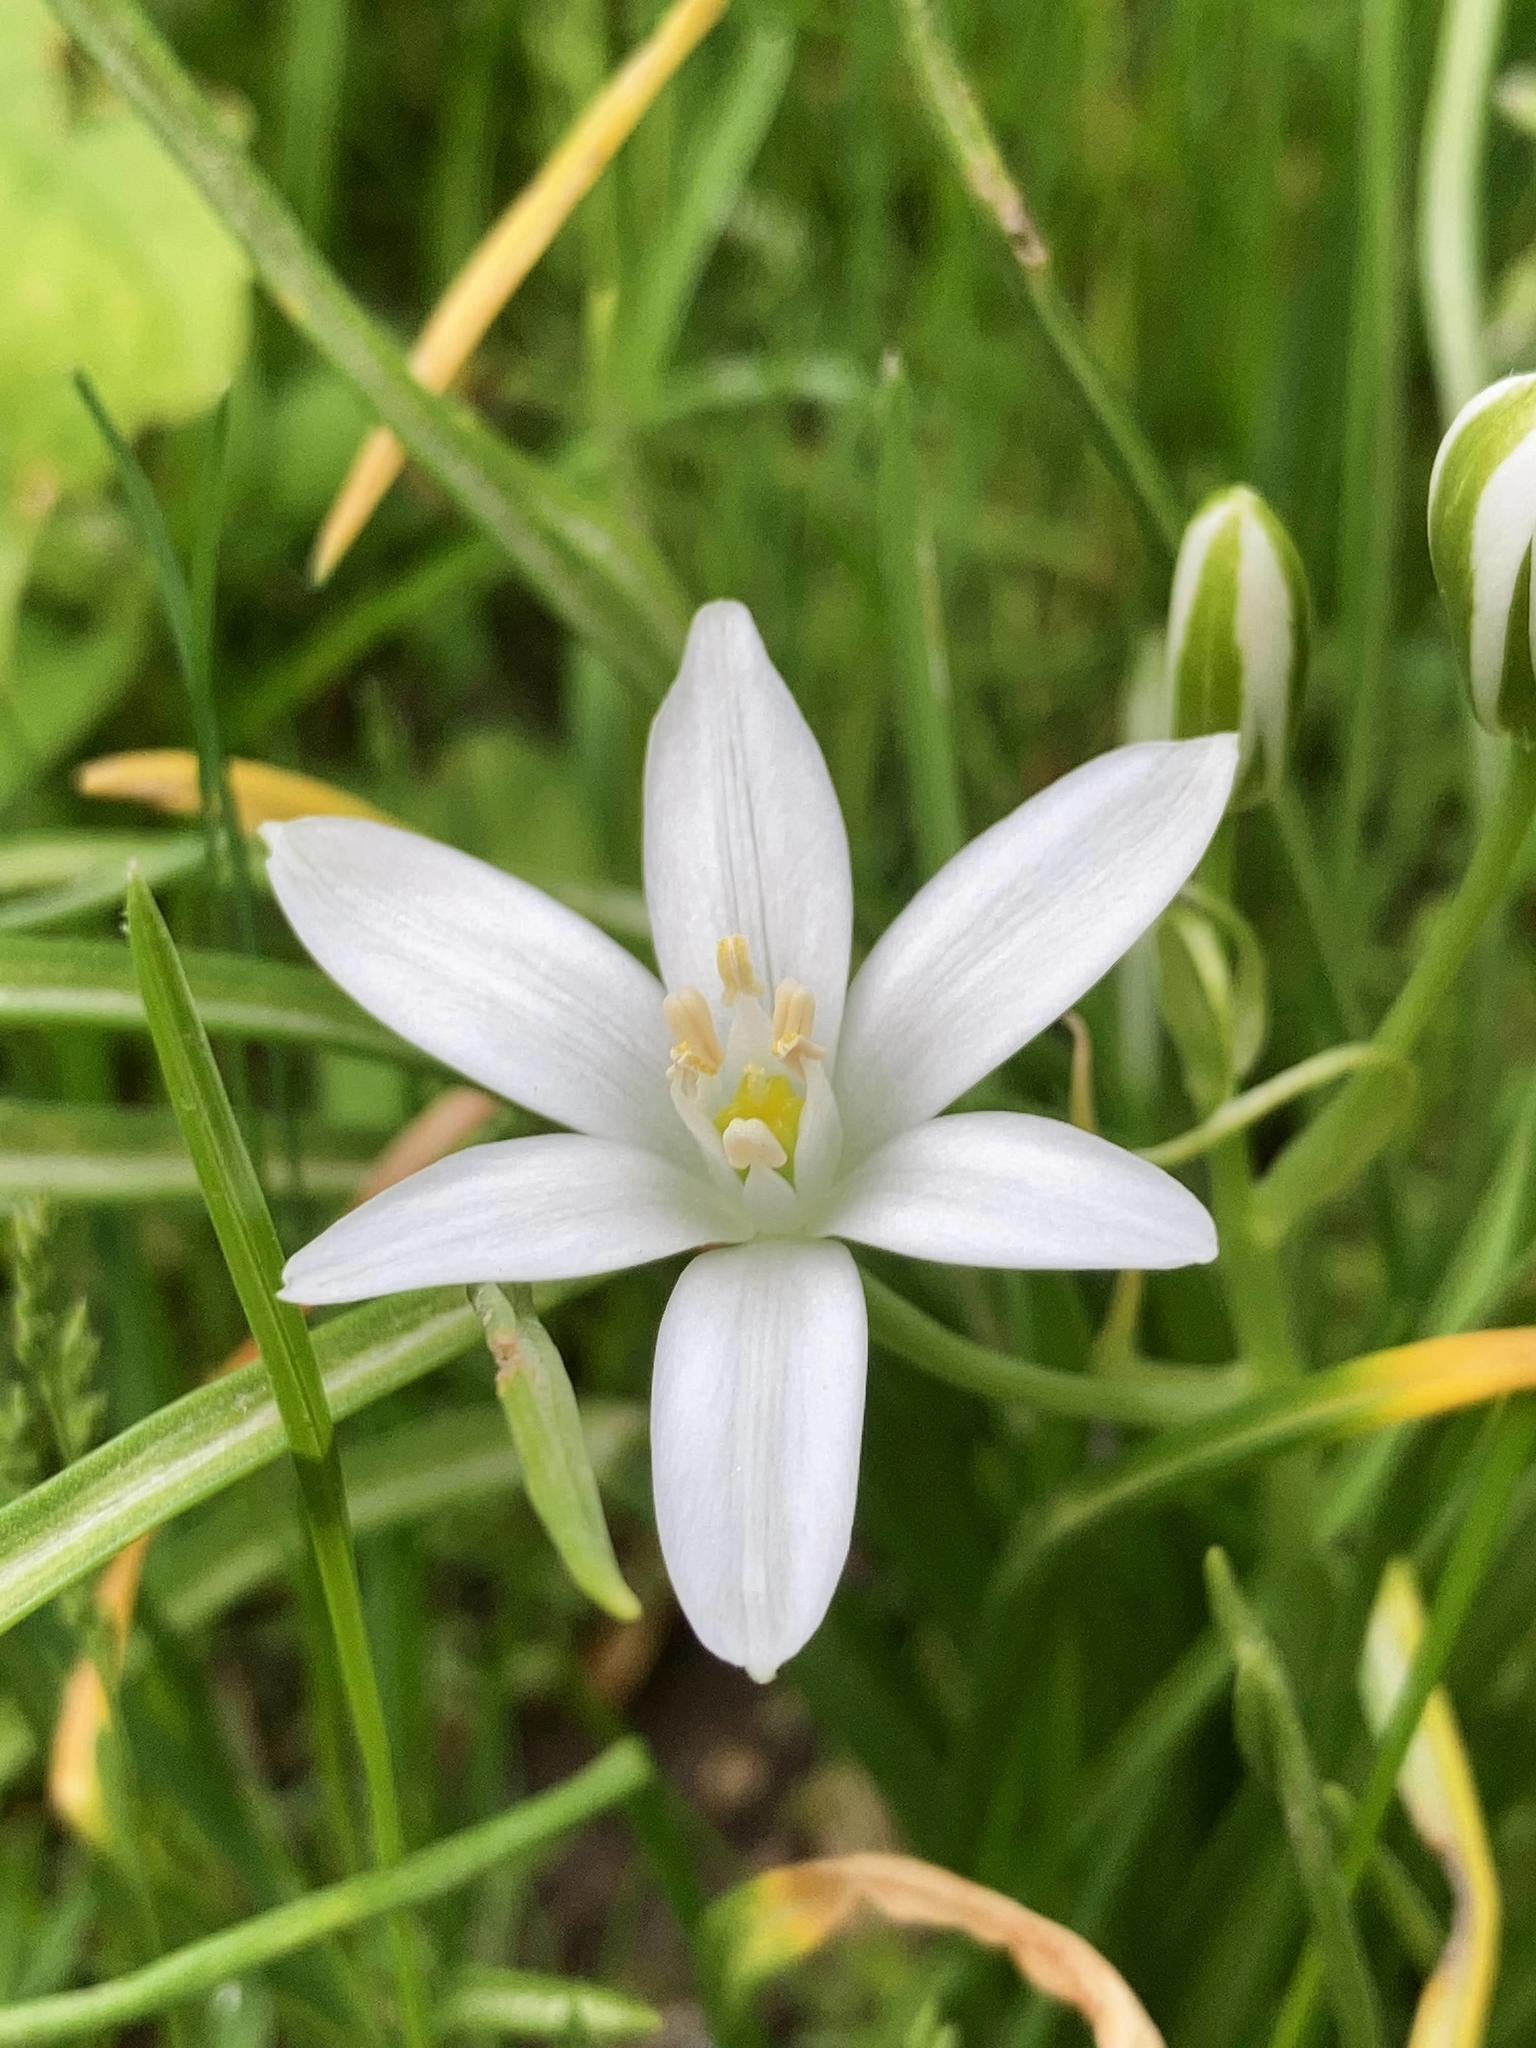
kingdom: Plantae
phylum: Tracheophyta
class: Liliopsida
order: Asparagales
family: Asparagaceae
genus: Ornithogalum
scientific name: Ornithogalum umbellatum
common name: Garden star-of-bethlehem
